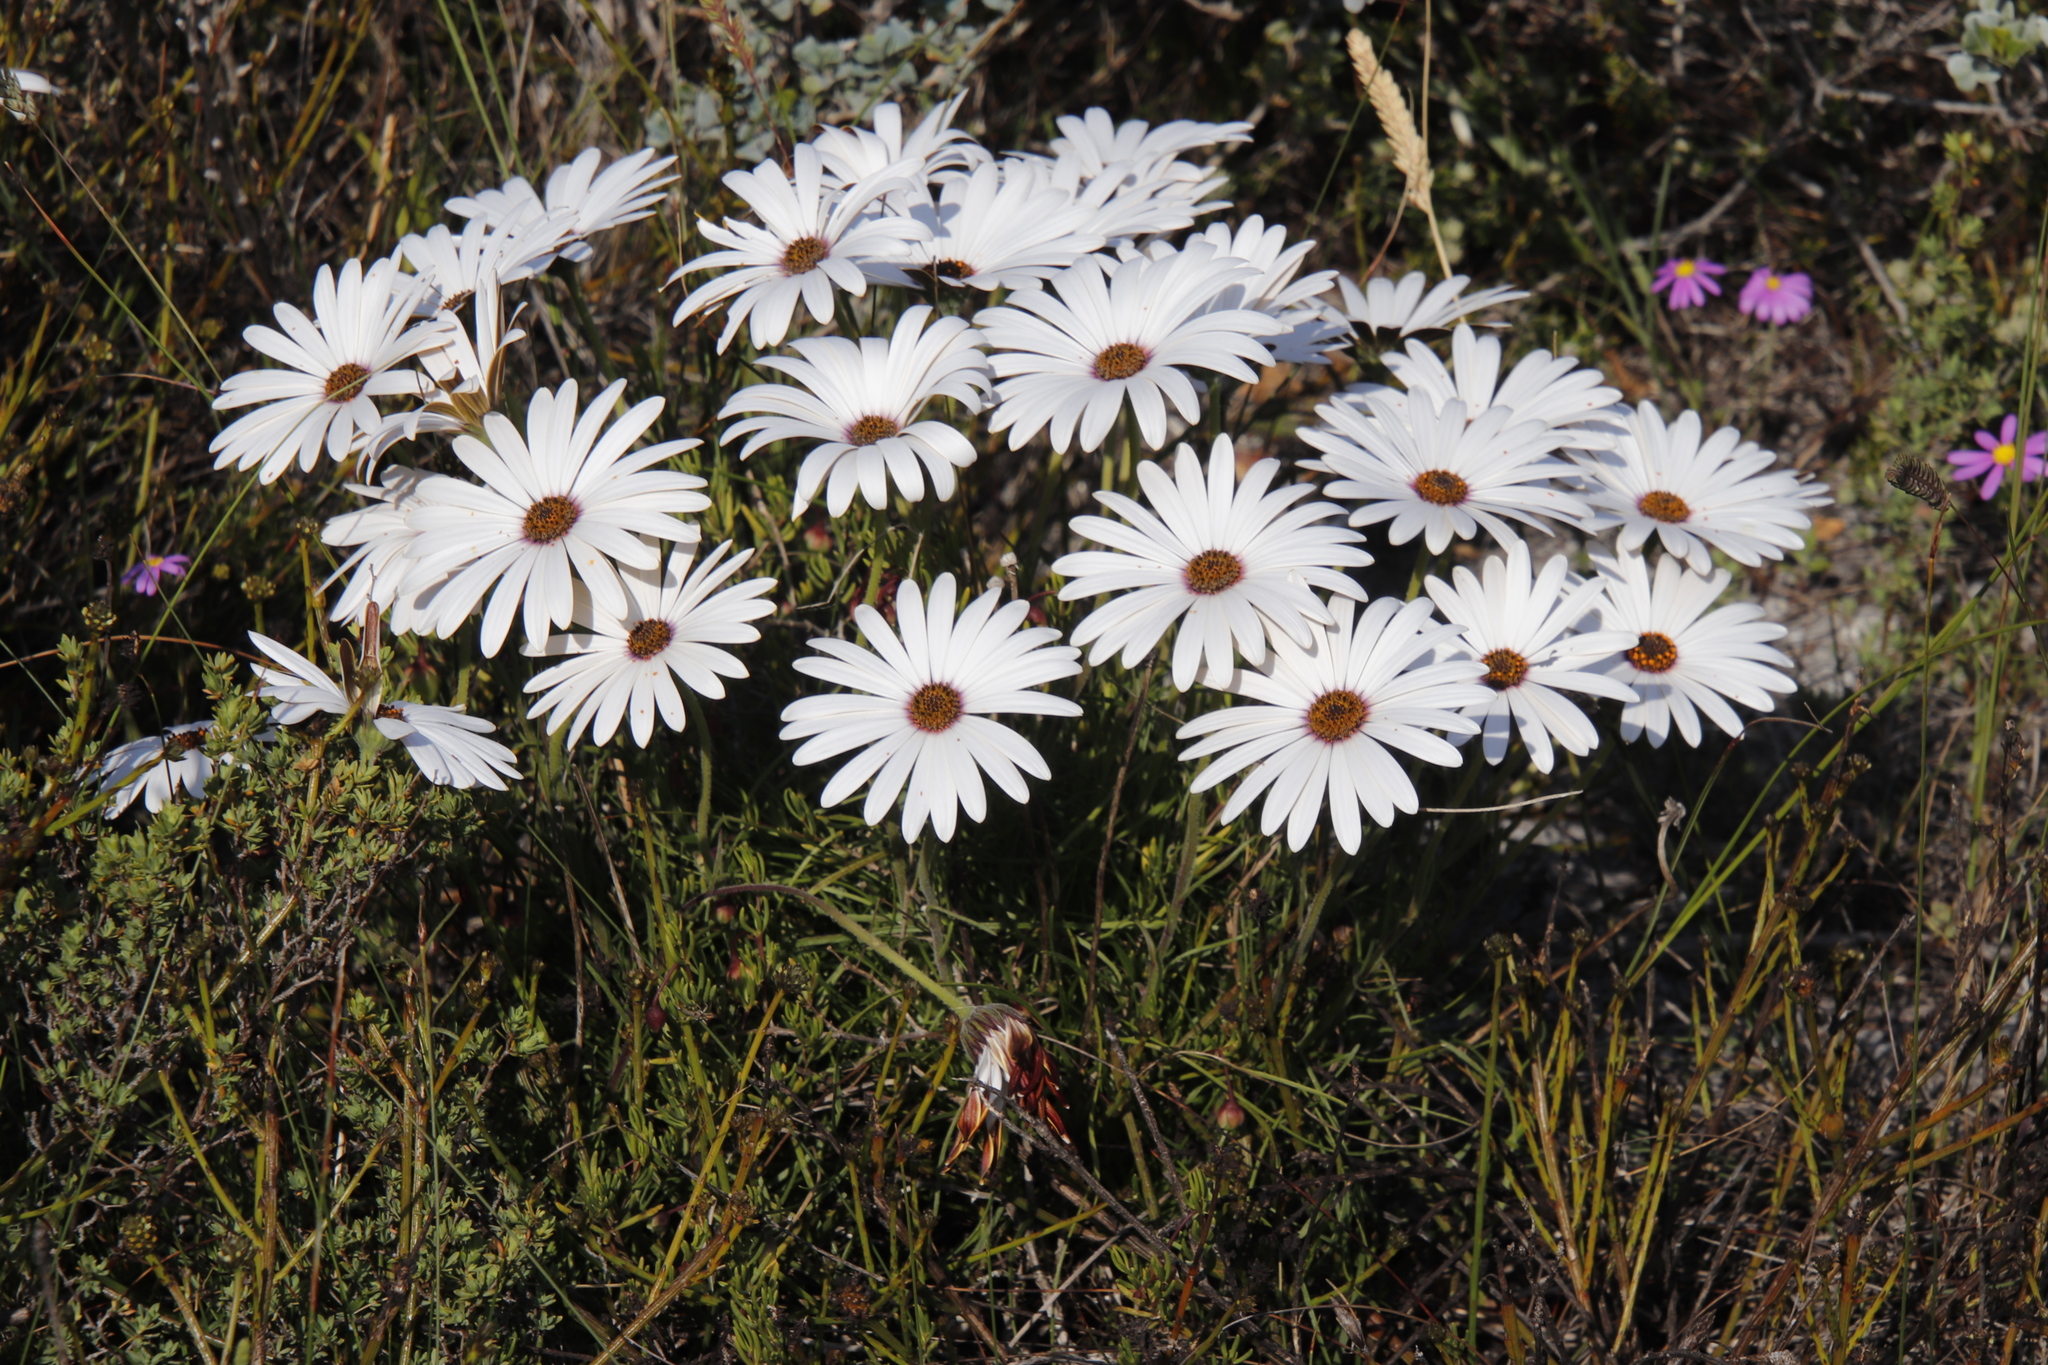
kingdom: Plantae
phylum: Tracheophyta
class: Magnoliopsida
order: Asterales
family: Asteraceae
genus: Dimorphotheca
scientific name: Dimorphotheca nudicaulis
